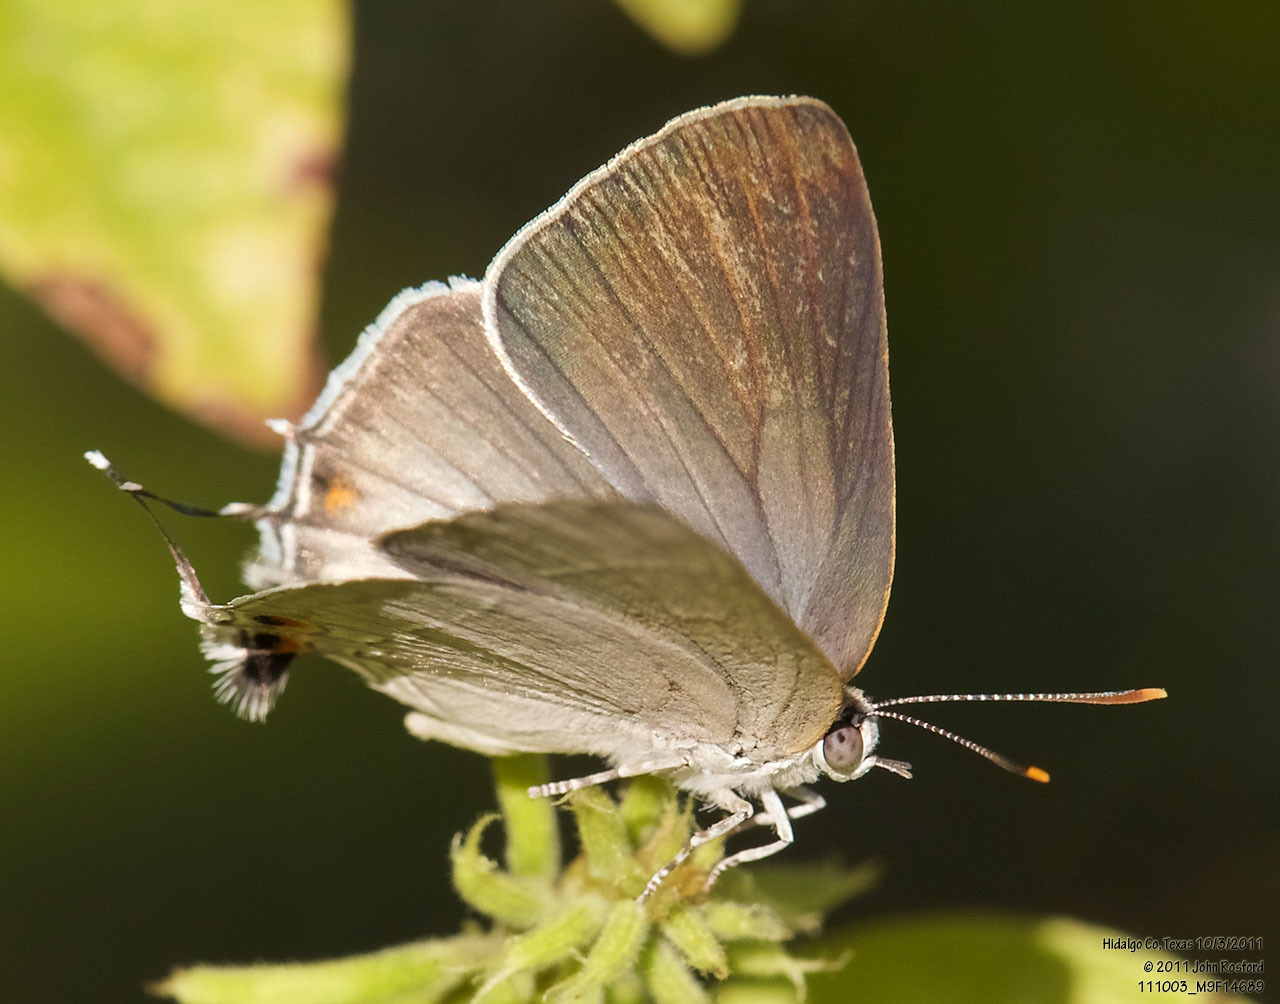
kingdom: Animalia
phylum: Arthropoda
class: Insecta
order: Lepidoptera
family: Lycaenidae
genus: Thecla
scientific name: Thecla marius
